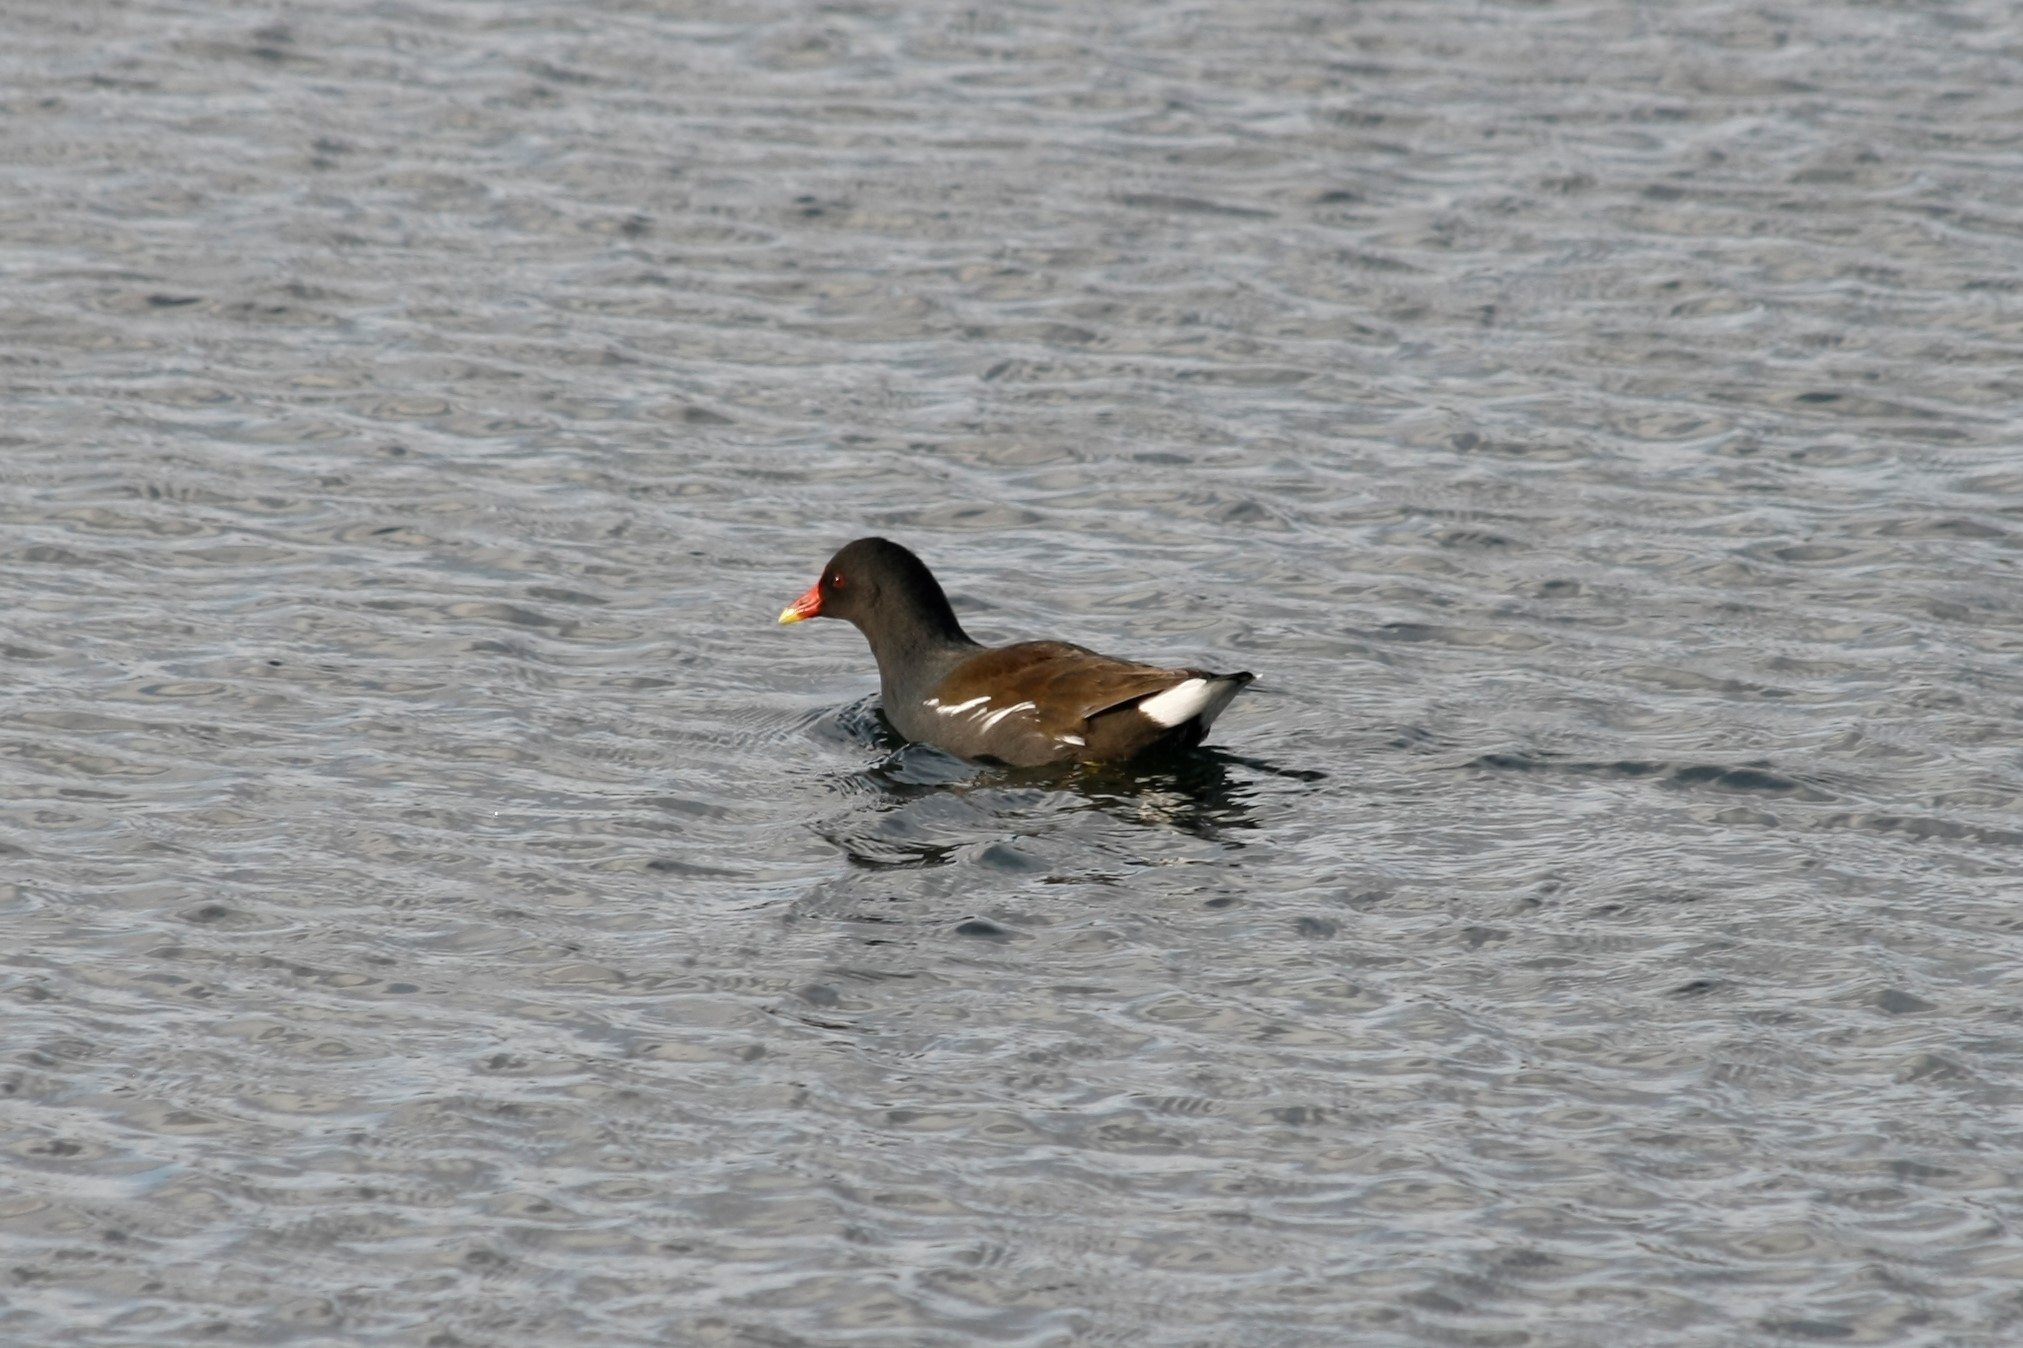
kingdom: Animalia
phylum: Chordata
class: Aves
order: Gruiformes
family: Rallidae
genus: Gallinula
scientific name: Gallinula chloropus
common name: Common moorhen
